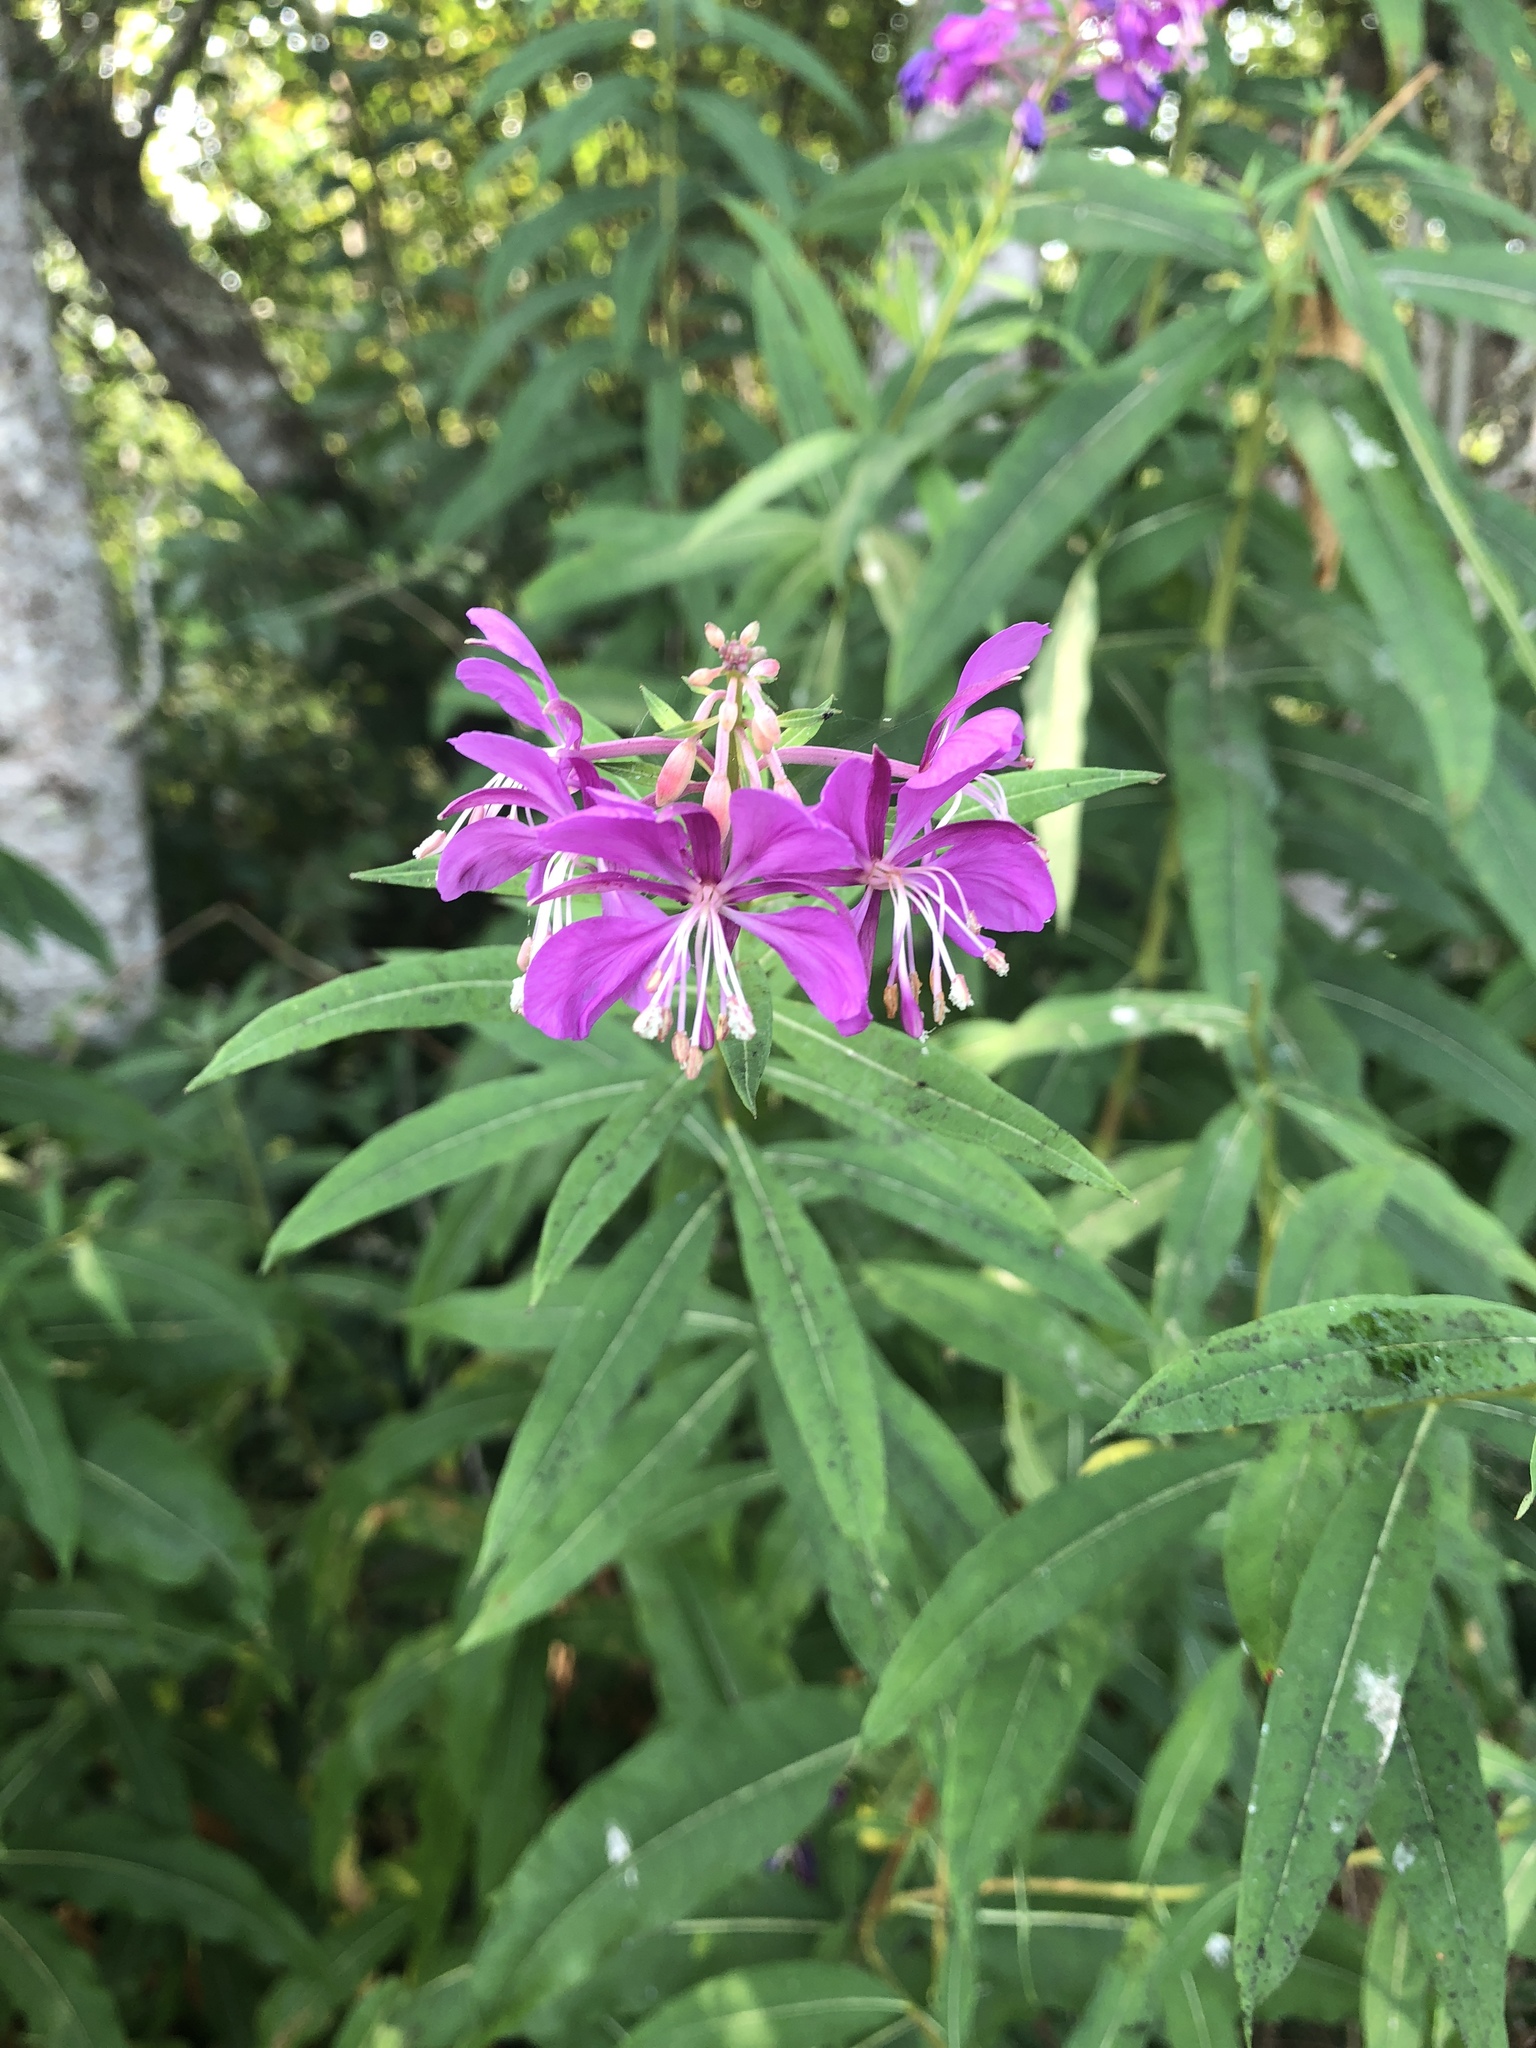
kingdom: Plantae
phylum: Tracheophyta
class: Magnoliopsida
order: Myrtales
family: Onagraceae
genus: Chamaenerion
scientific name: Chamaenerion angustifolium
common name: Fireweed
